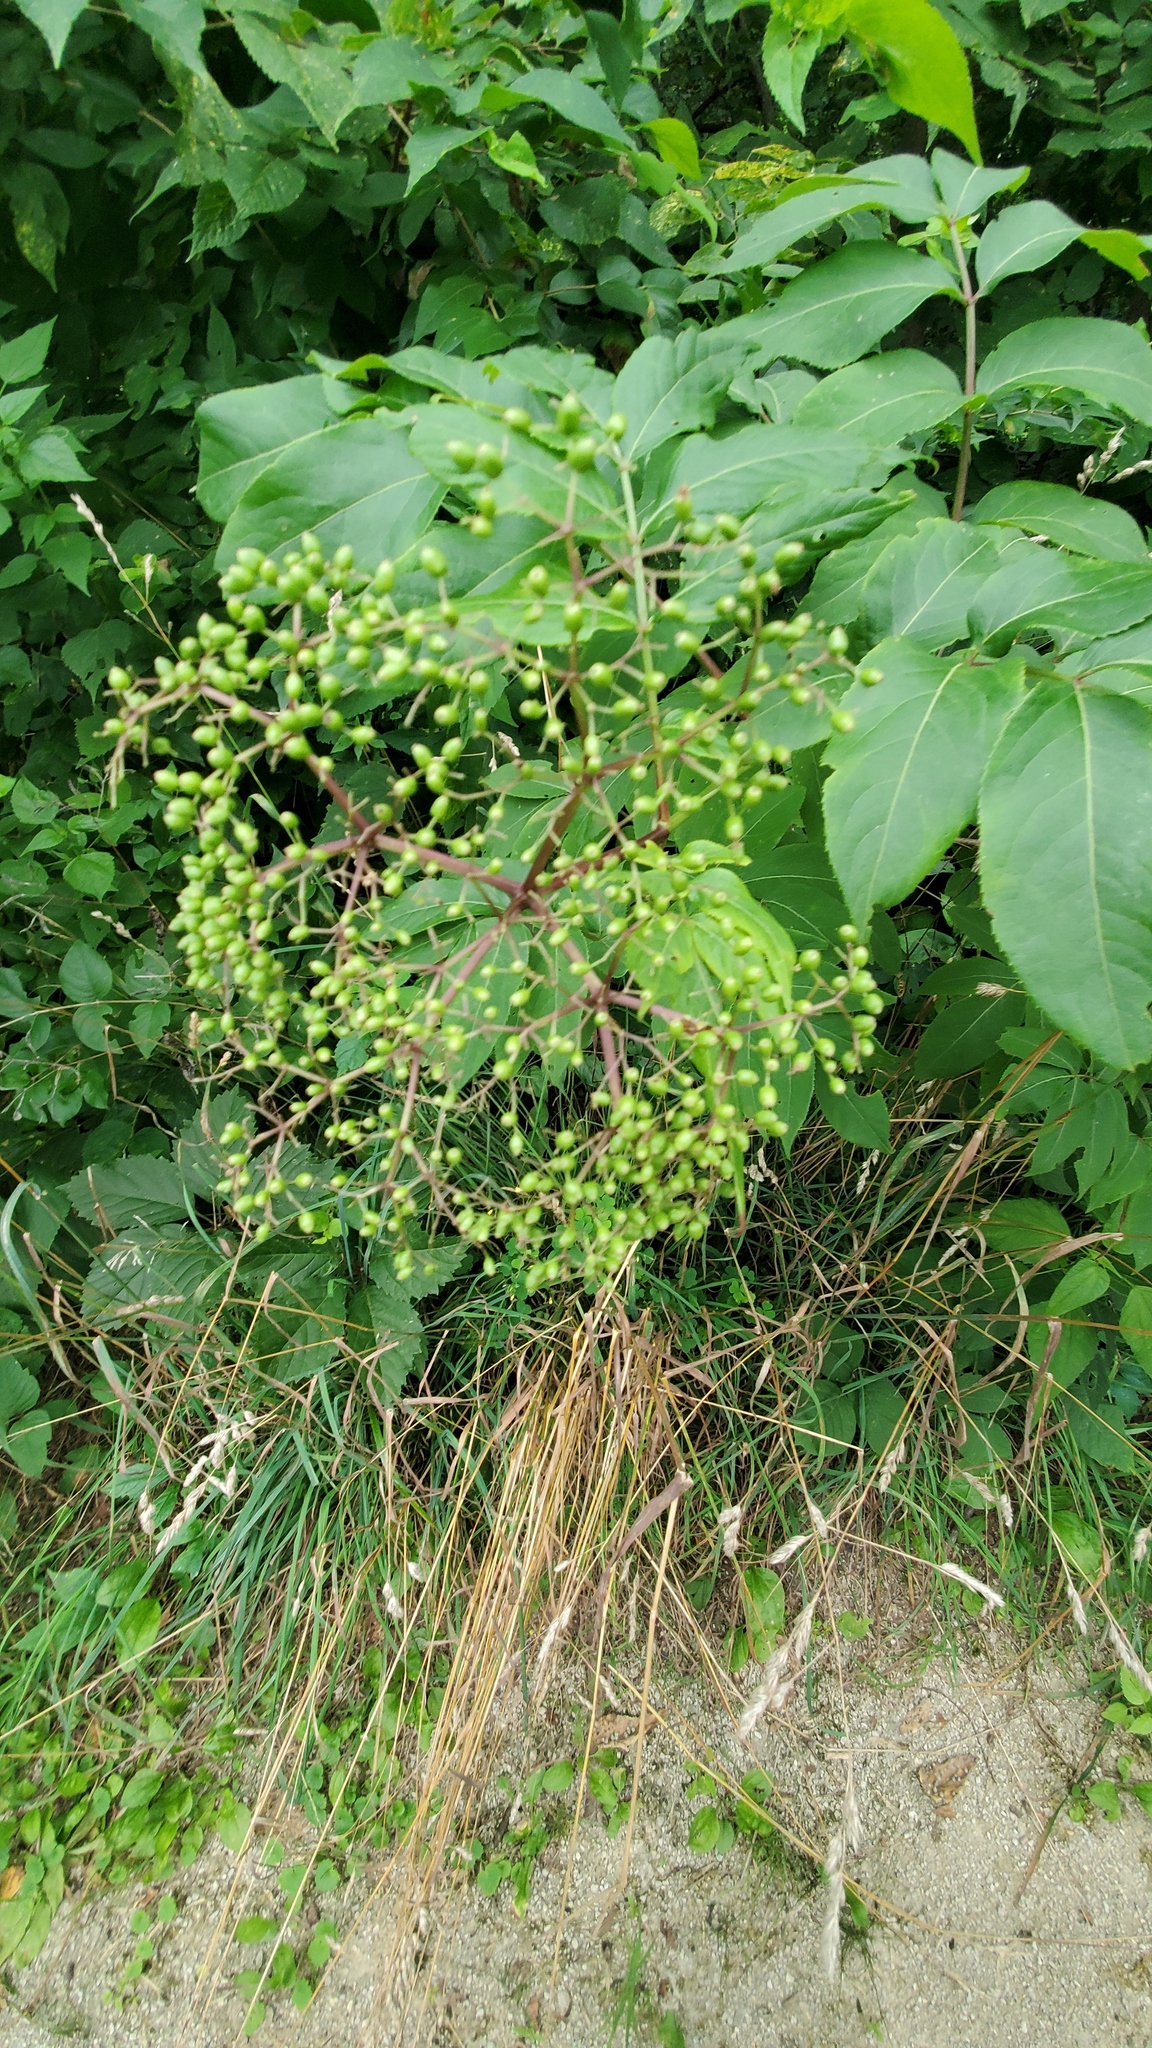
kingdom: Plantae
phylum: Tracheophyta
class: Magnoliopsida
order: Dipsacales
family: Viburnaceae
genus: Sambucus
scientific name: Sambucus canadensis
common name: American elder
